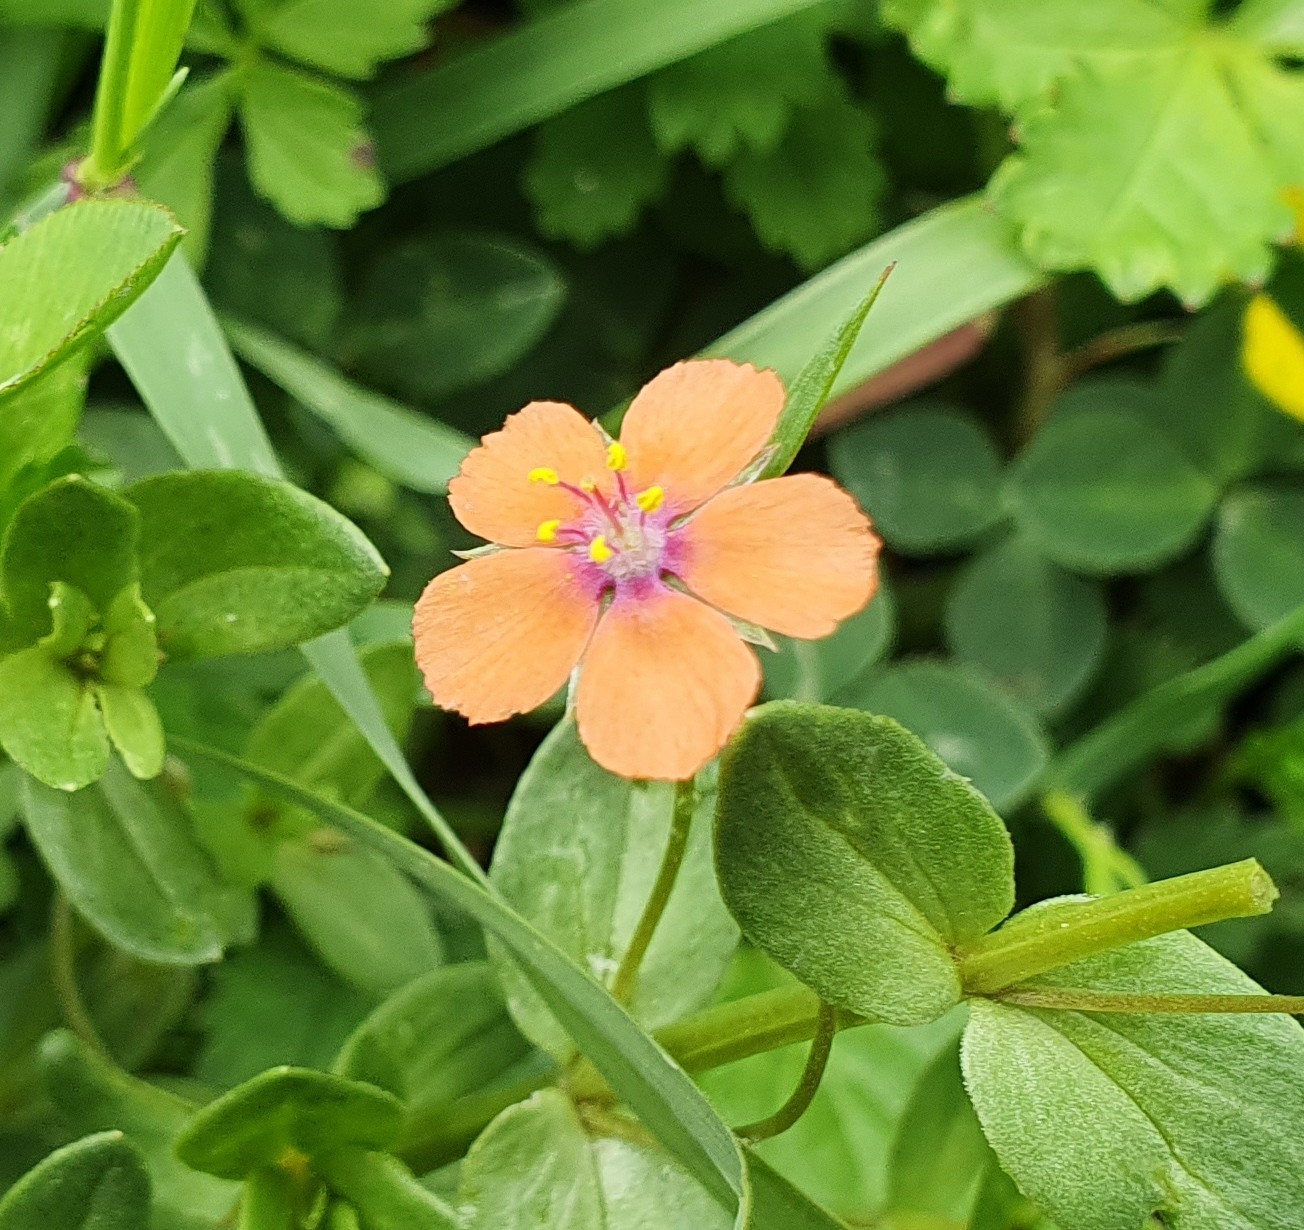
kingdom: Plantae
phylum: Tracheophyta
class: Magnoliopsida
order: Ericales
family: Primulaceae
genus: Lysimachia
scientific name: Lysimachia arvensis
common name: Scarlet pimpernel
